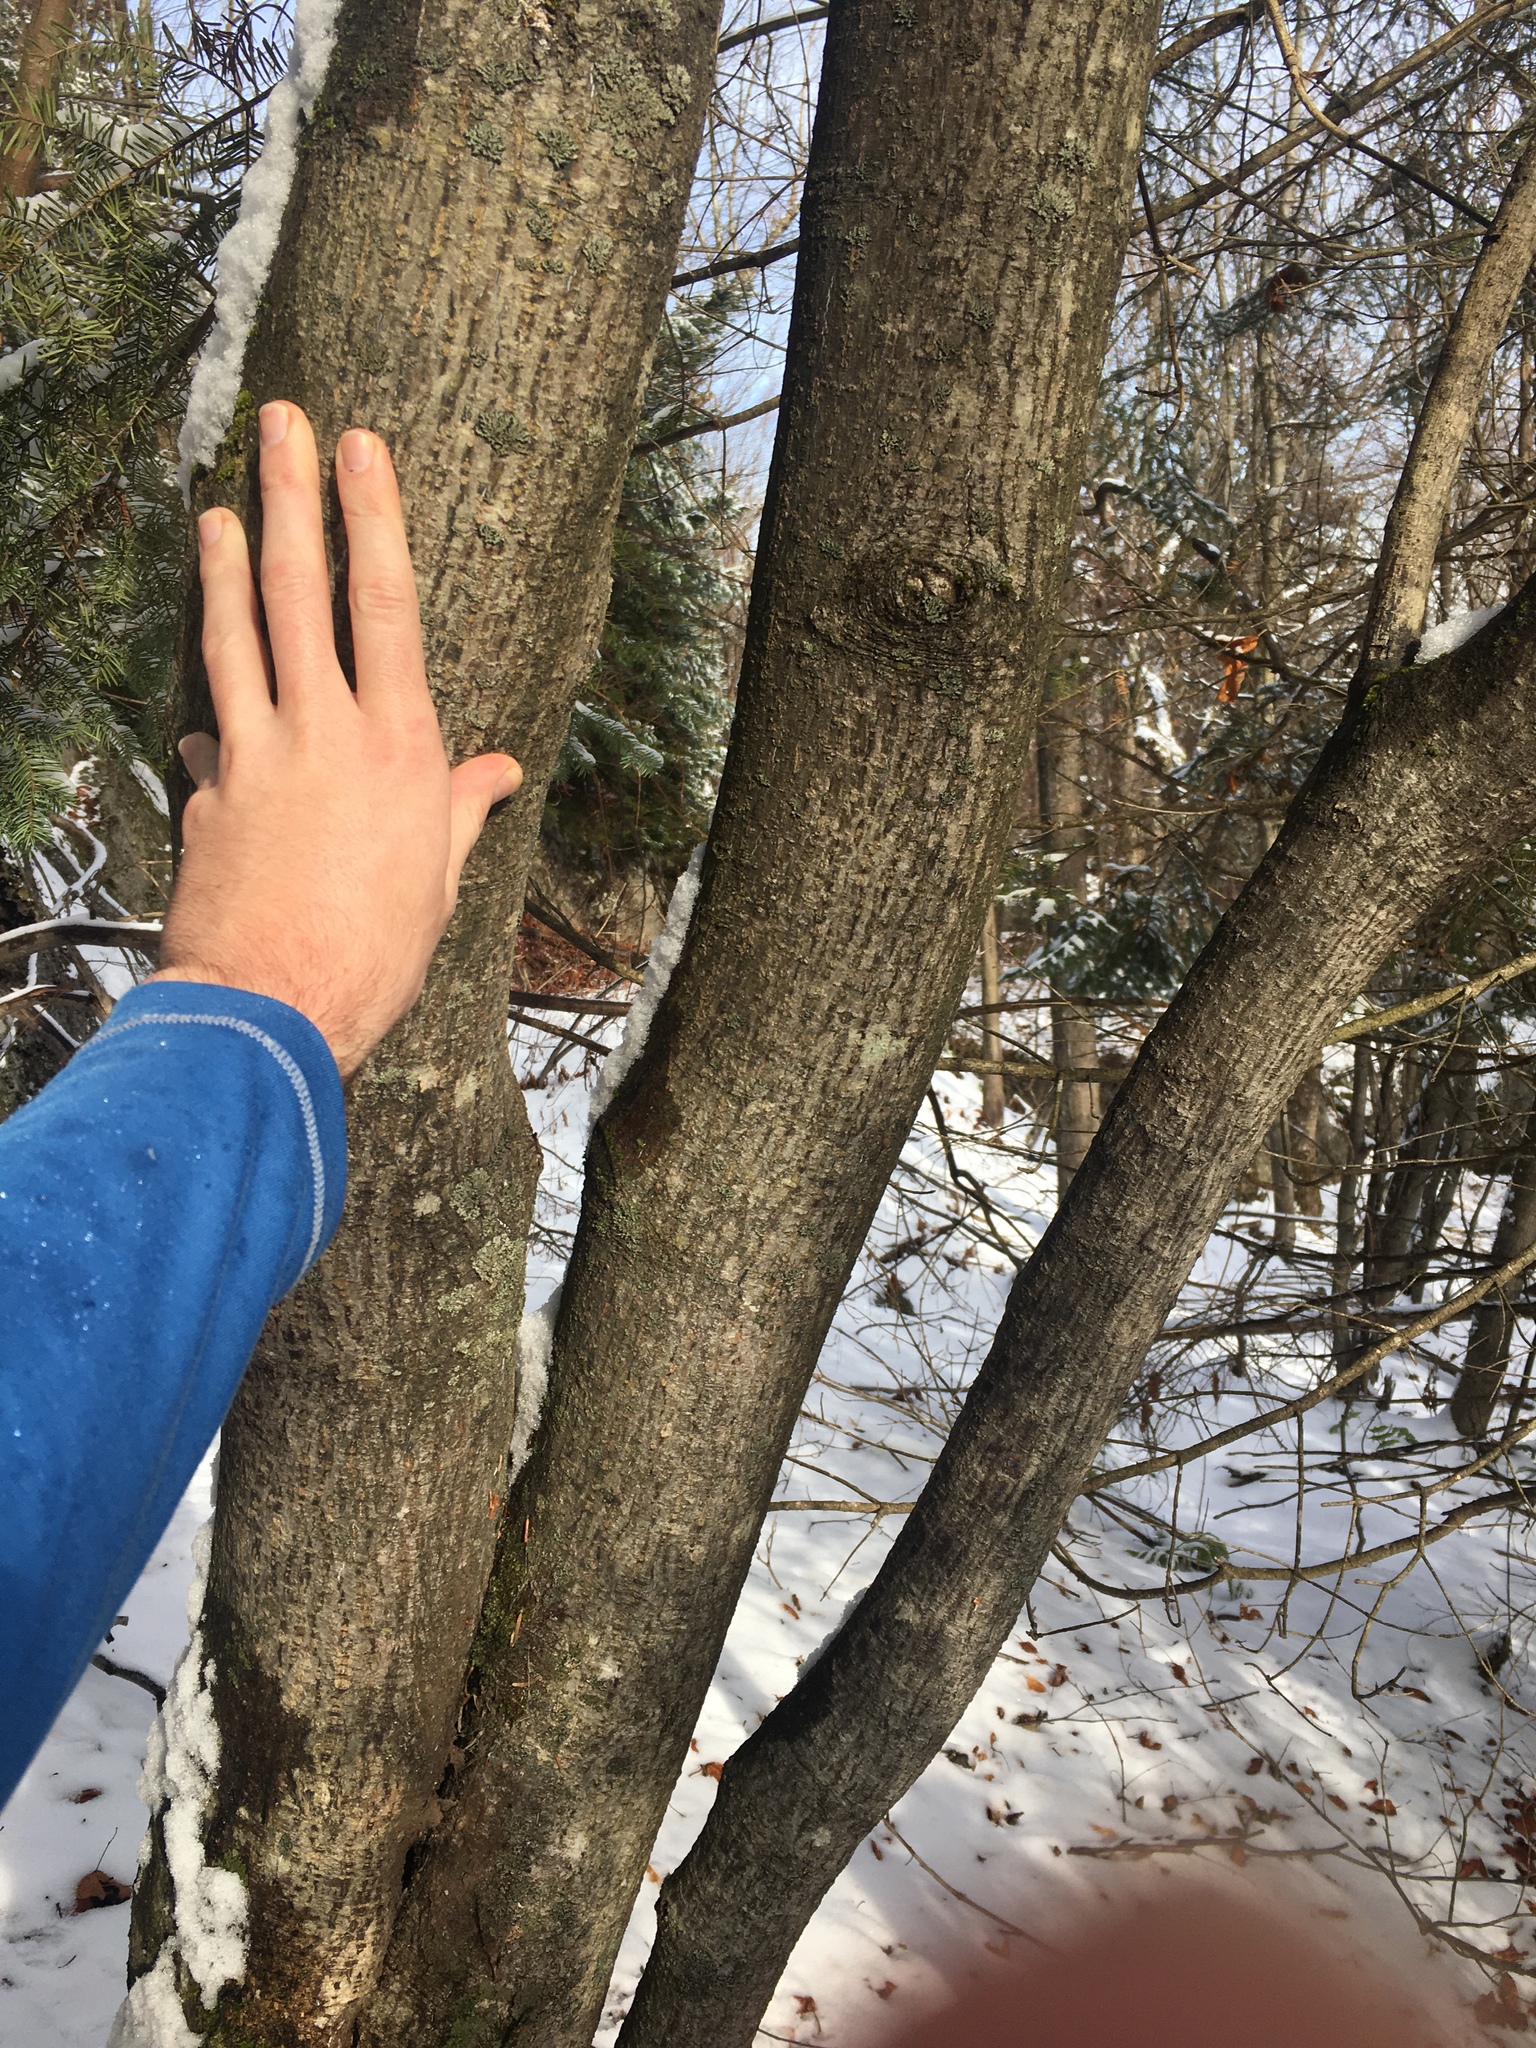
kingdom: Plantae
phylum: Tracheophyta
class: Magnoliopsida
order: Sapindales
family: Sapindaceae
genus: Acer
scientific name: Acer pensylvanicum
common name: Moosewood
